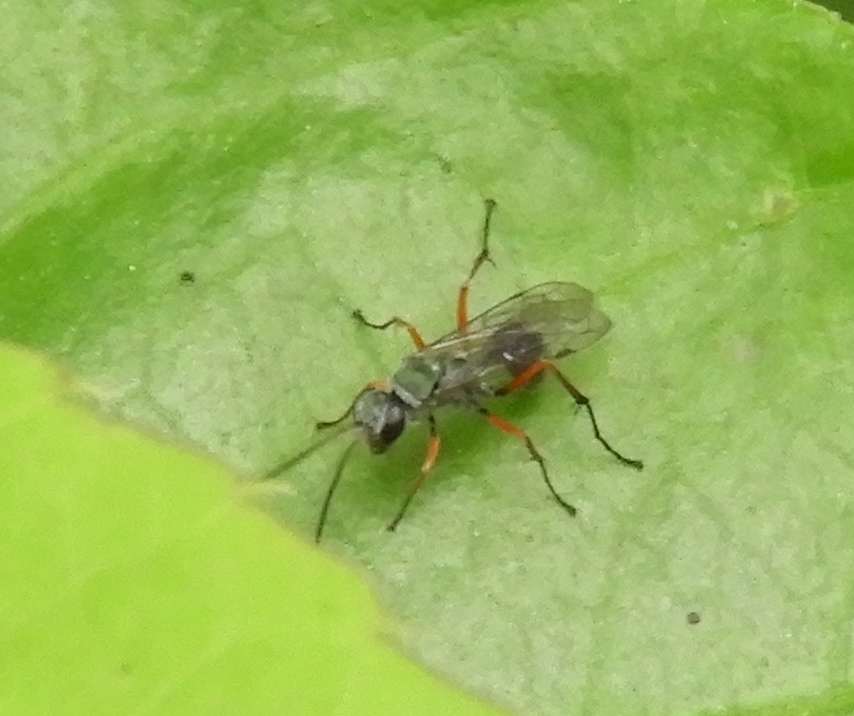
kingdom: Animalia
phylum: Arthropoda
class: Insecta
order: Hymenoptera
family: Pompilidae
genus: Auplopus
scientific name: Auplopus
